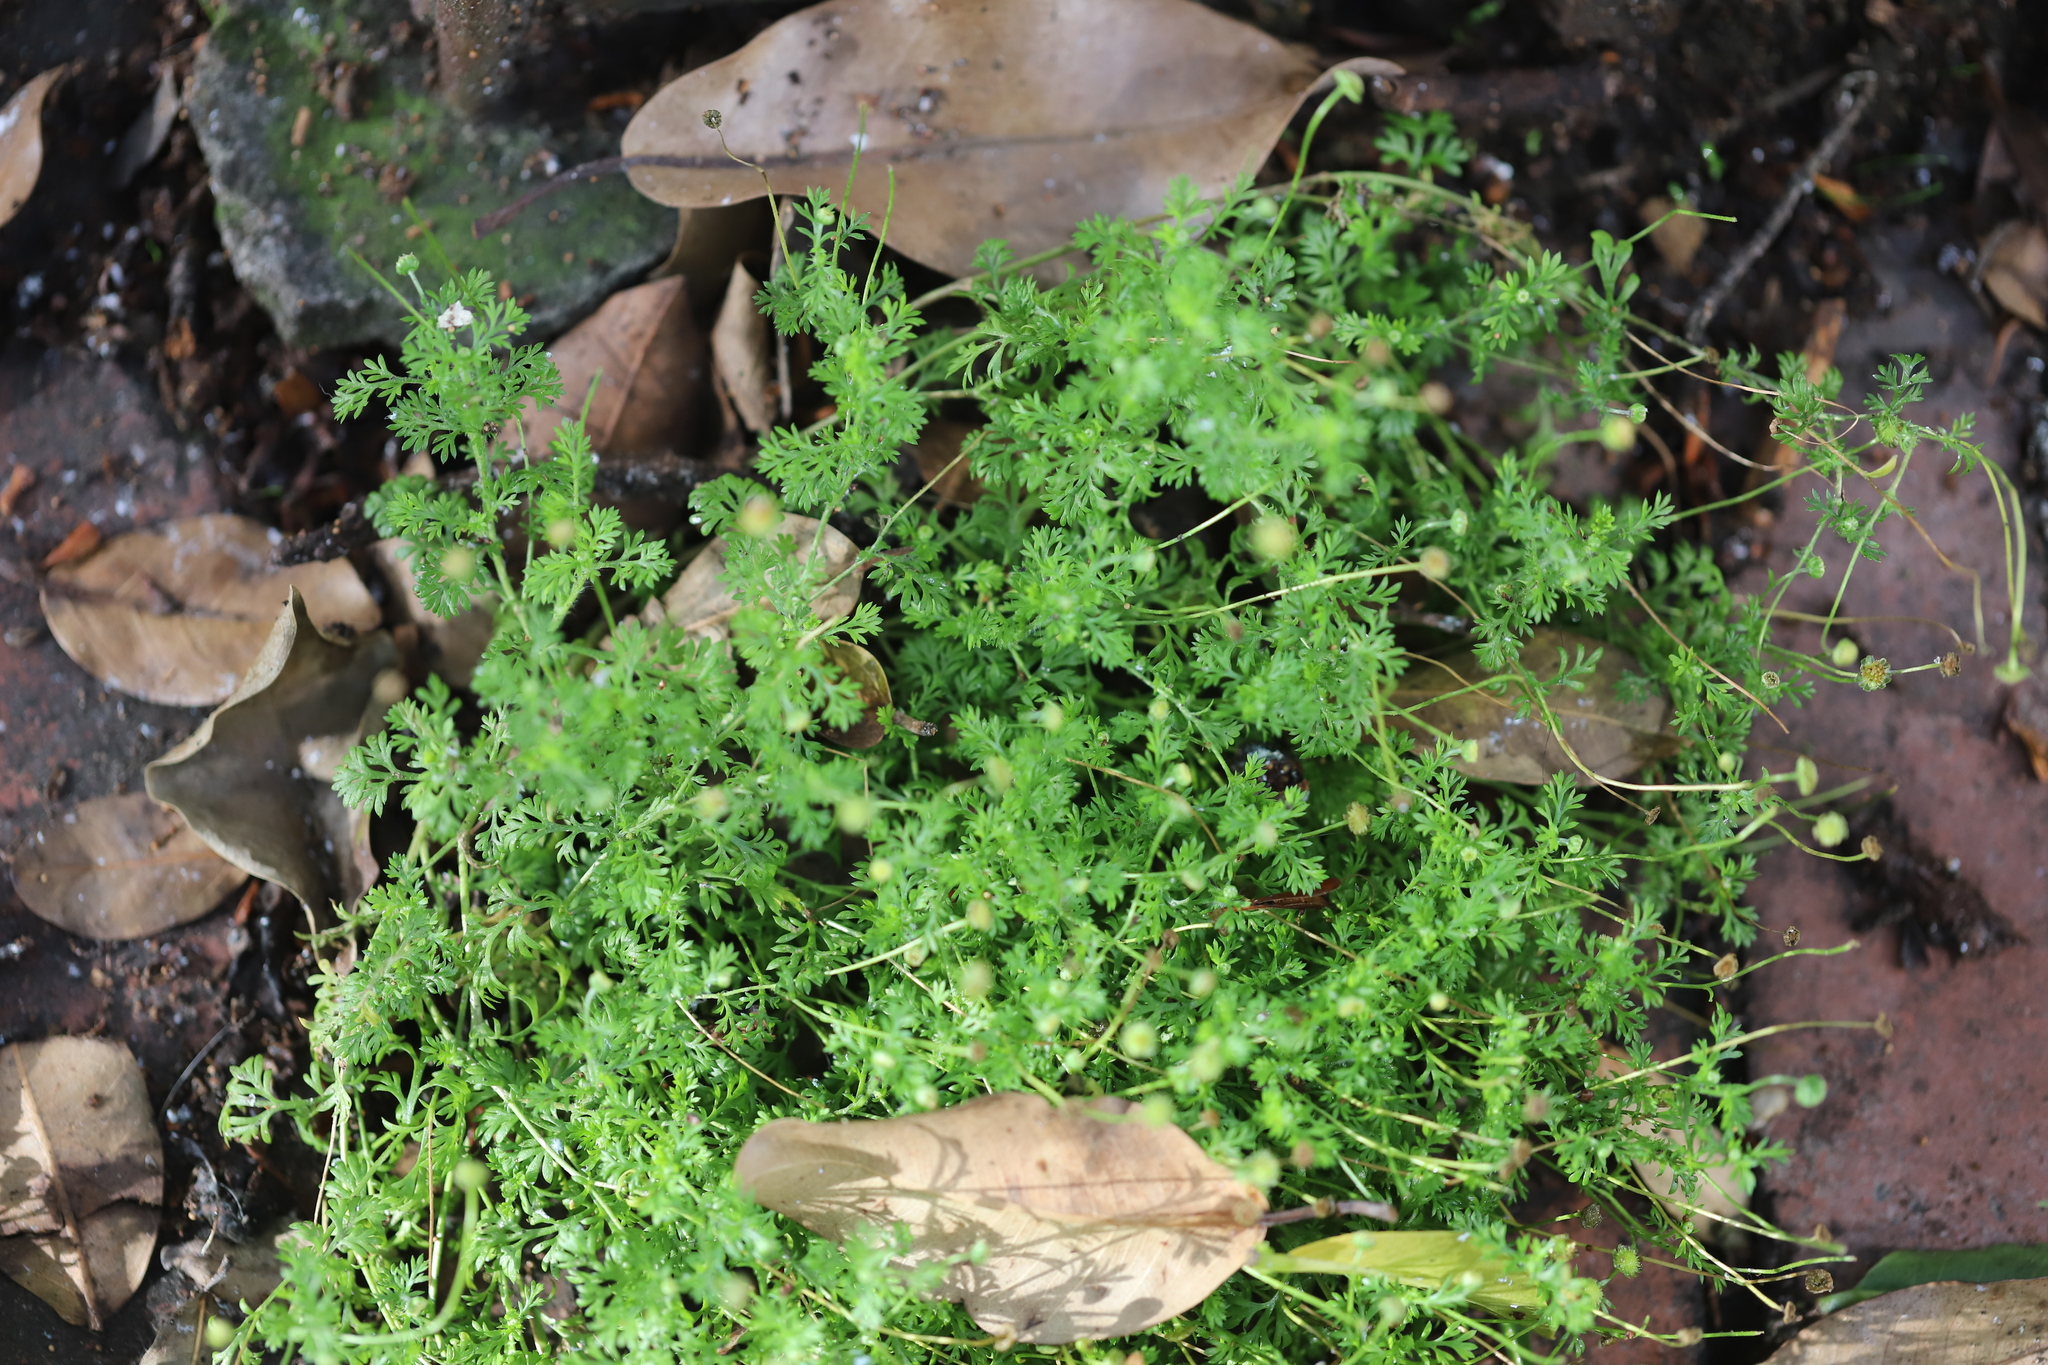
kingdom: Plantae
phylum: Tracheophyta
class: Magnoliopsida
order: Asterales
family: Asteraceae
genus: Cotula
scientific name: Cotula australis
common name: Australian waterbuttons
